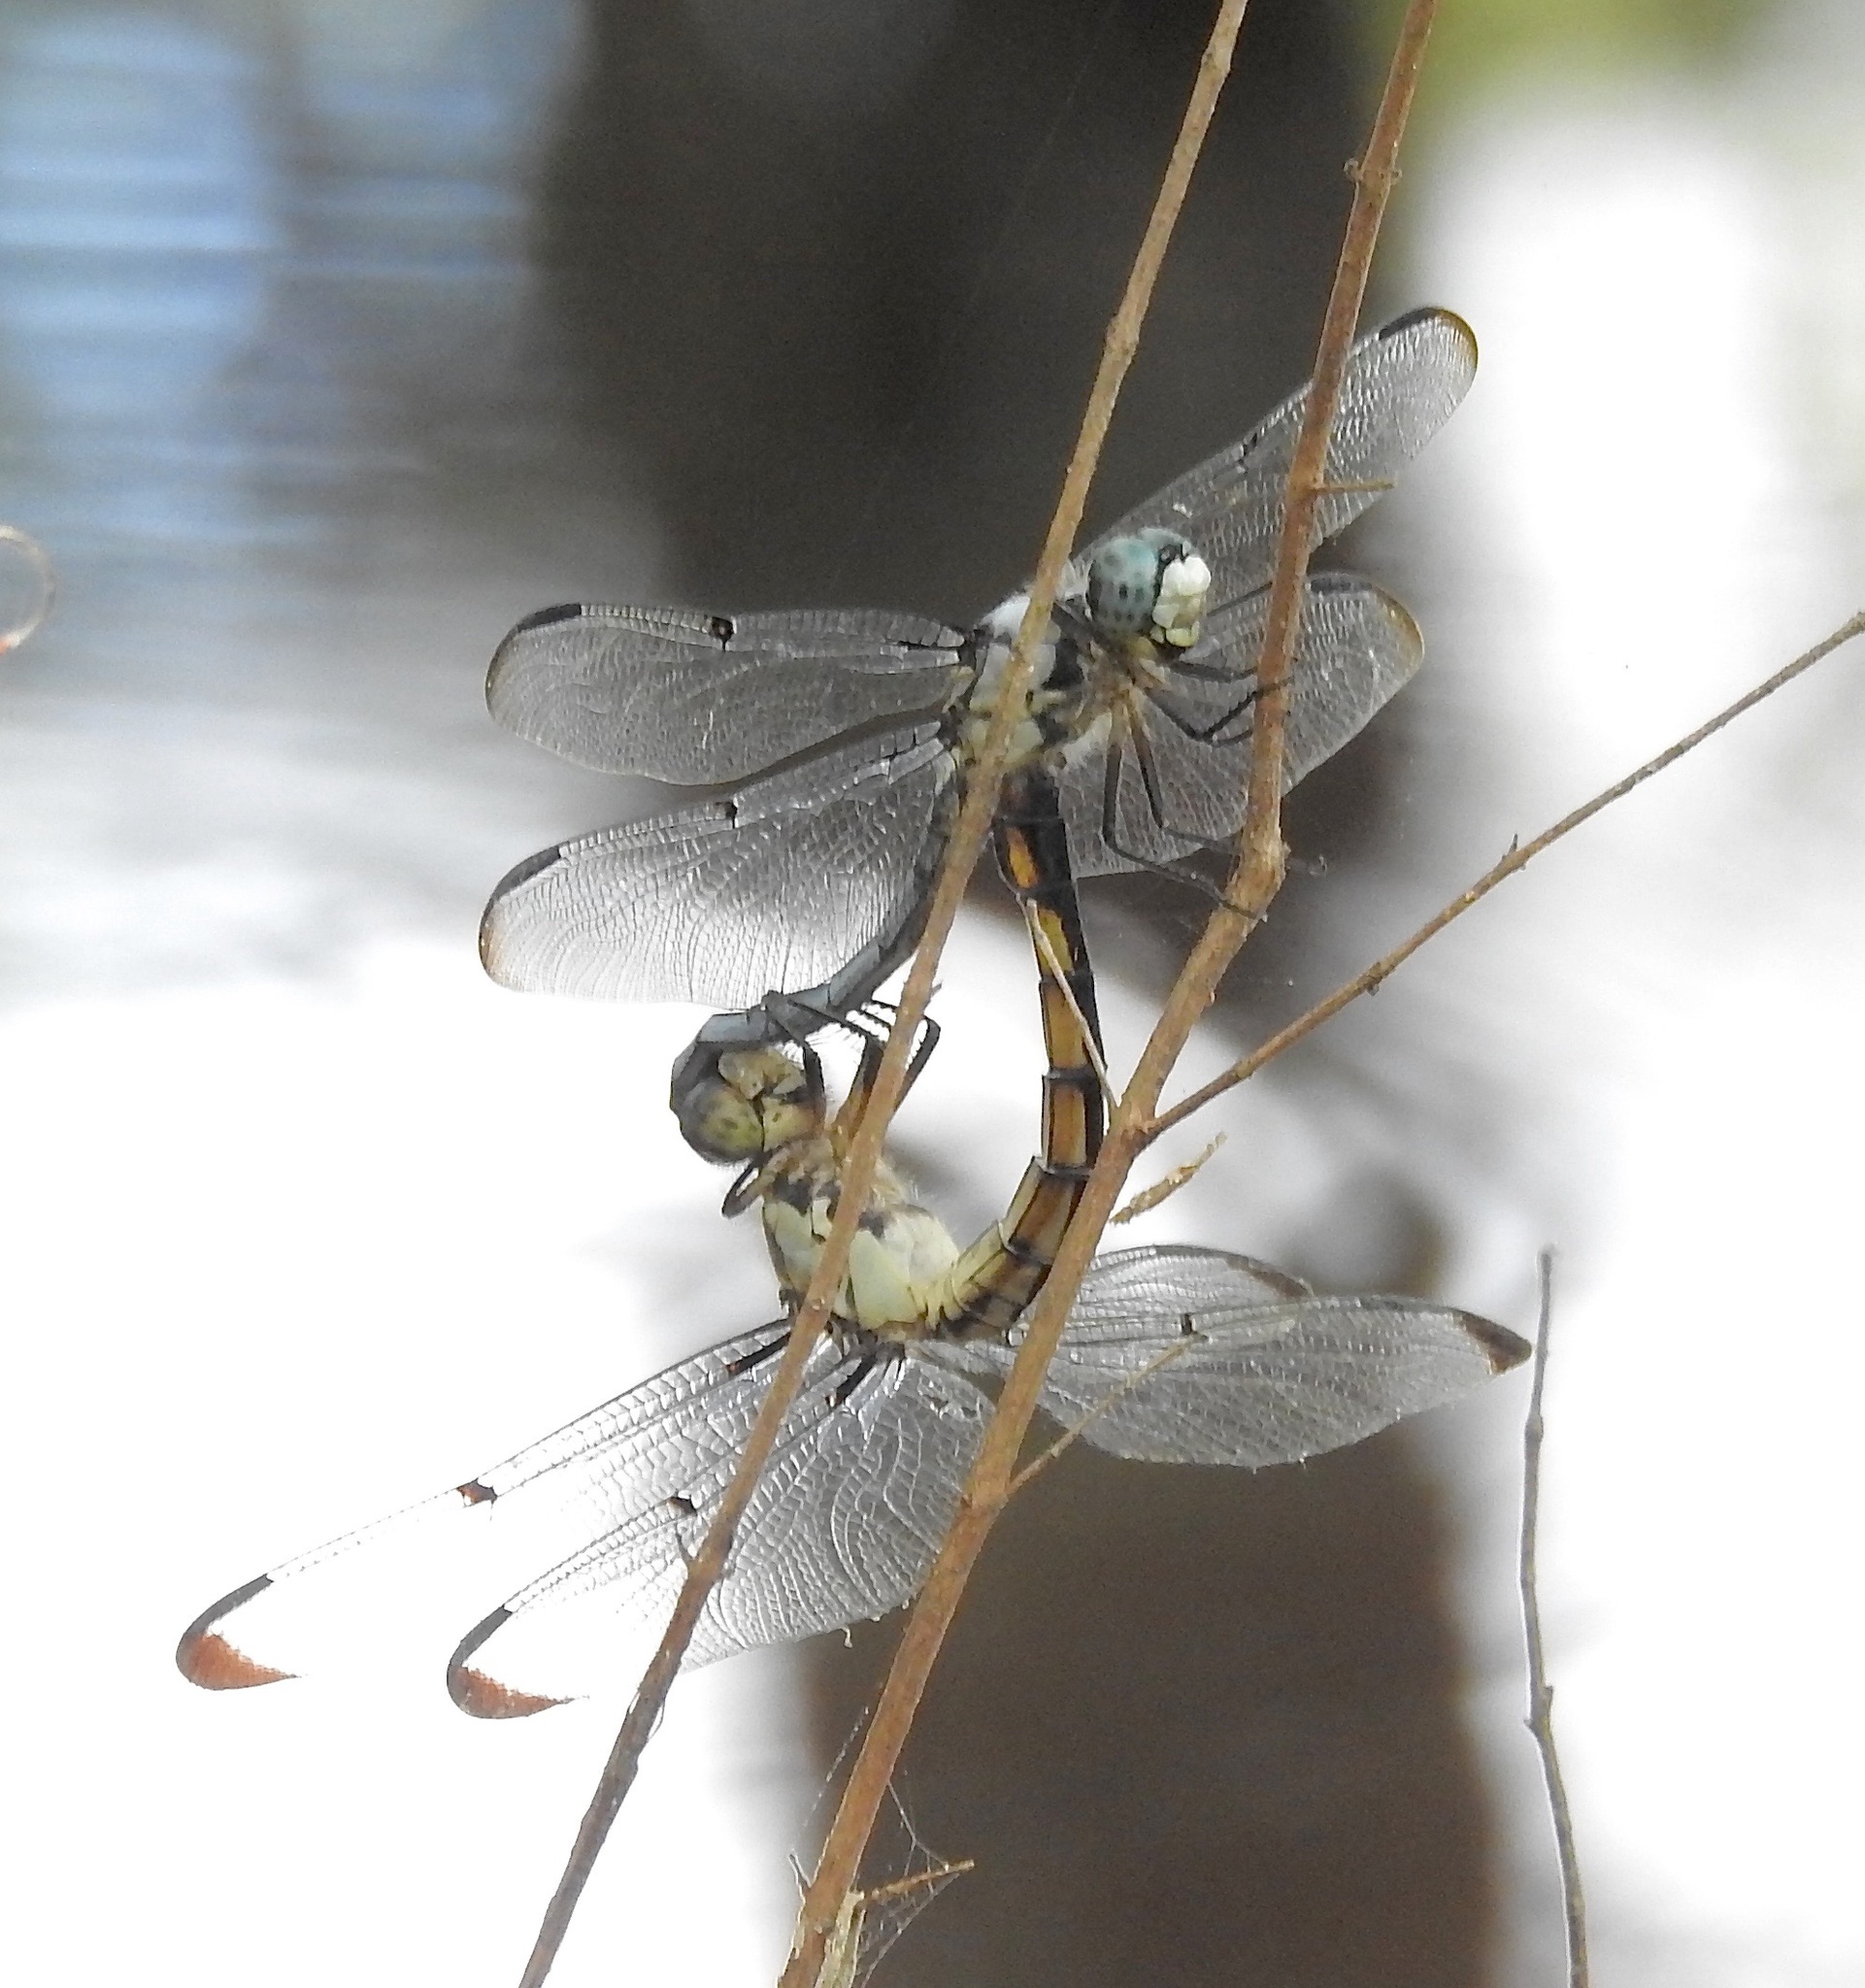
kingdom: Animalia
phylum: Arthropoda
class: Insecta
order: Odonata
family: Libellulidae
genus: Libellula
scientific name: Libellula vibrans
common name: Great blue skimmer
